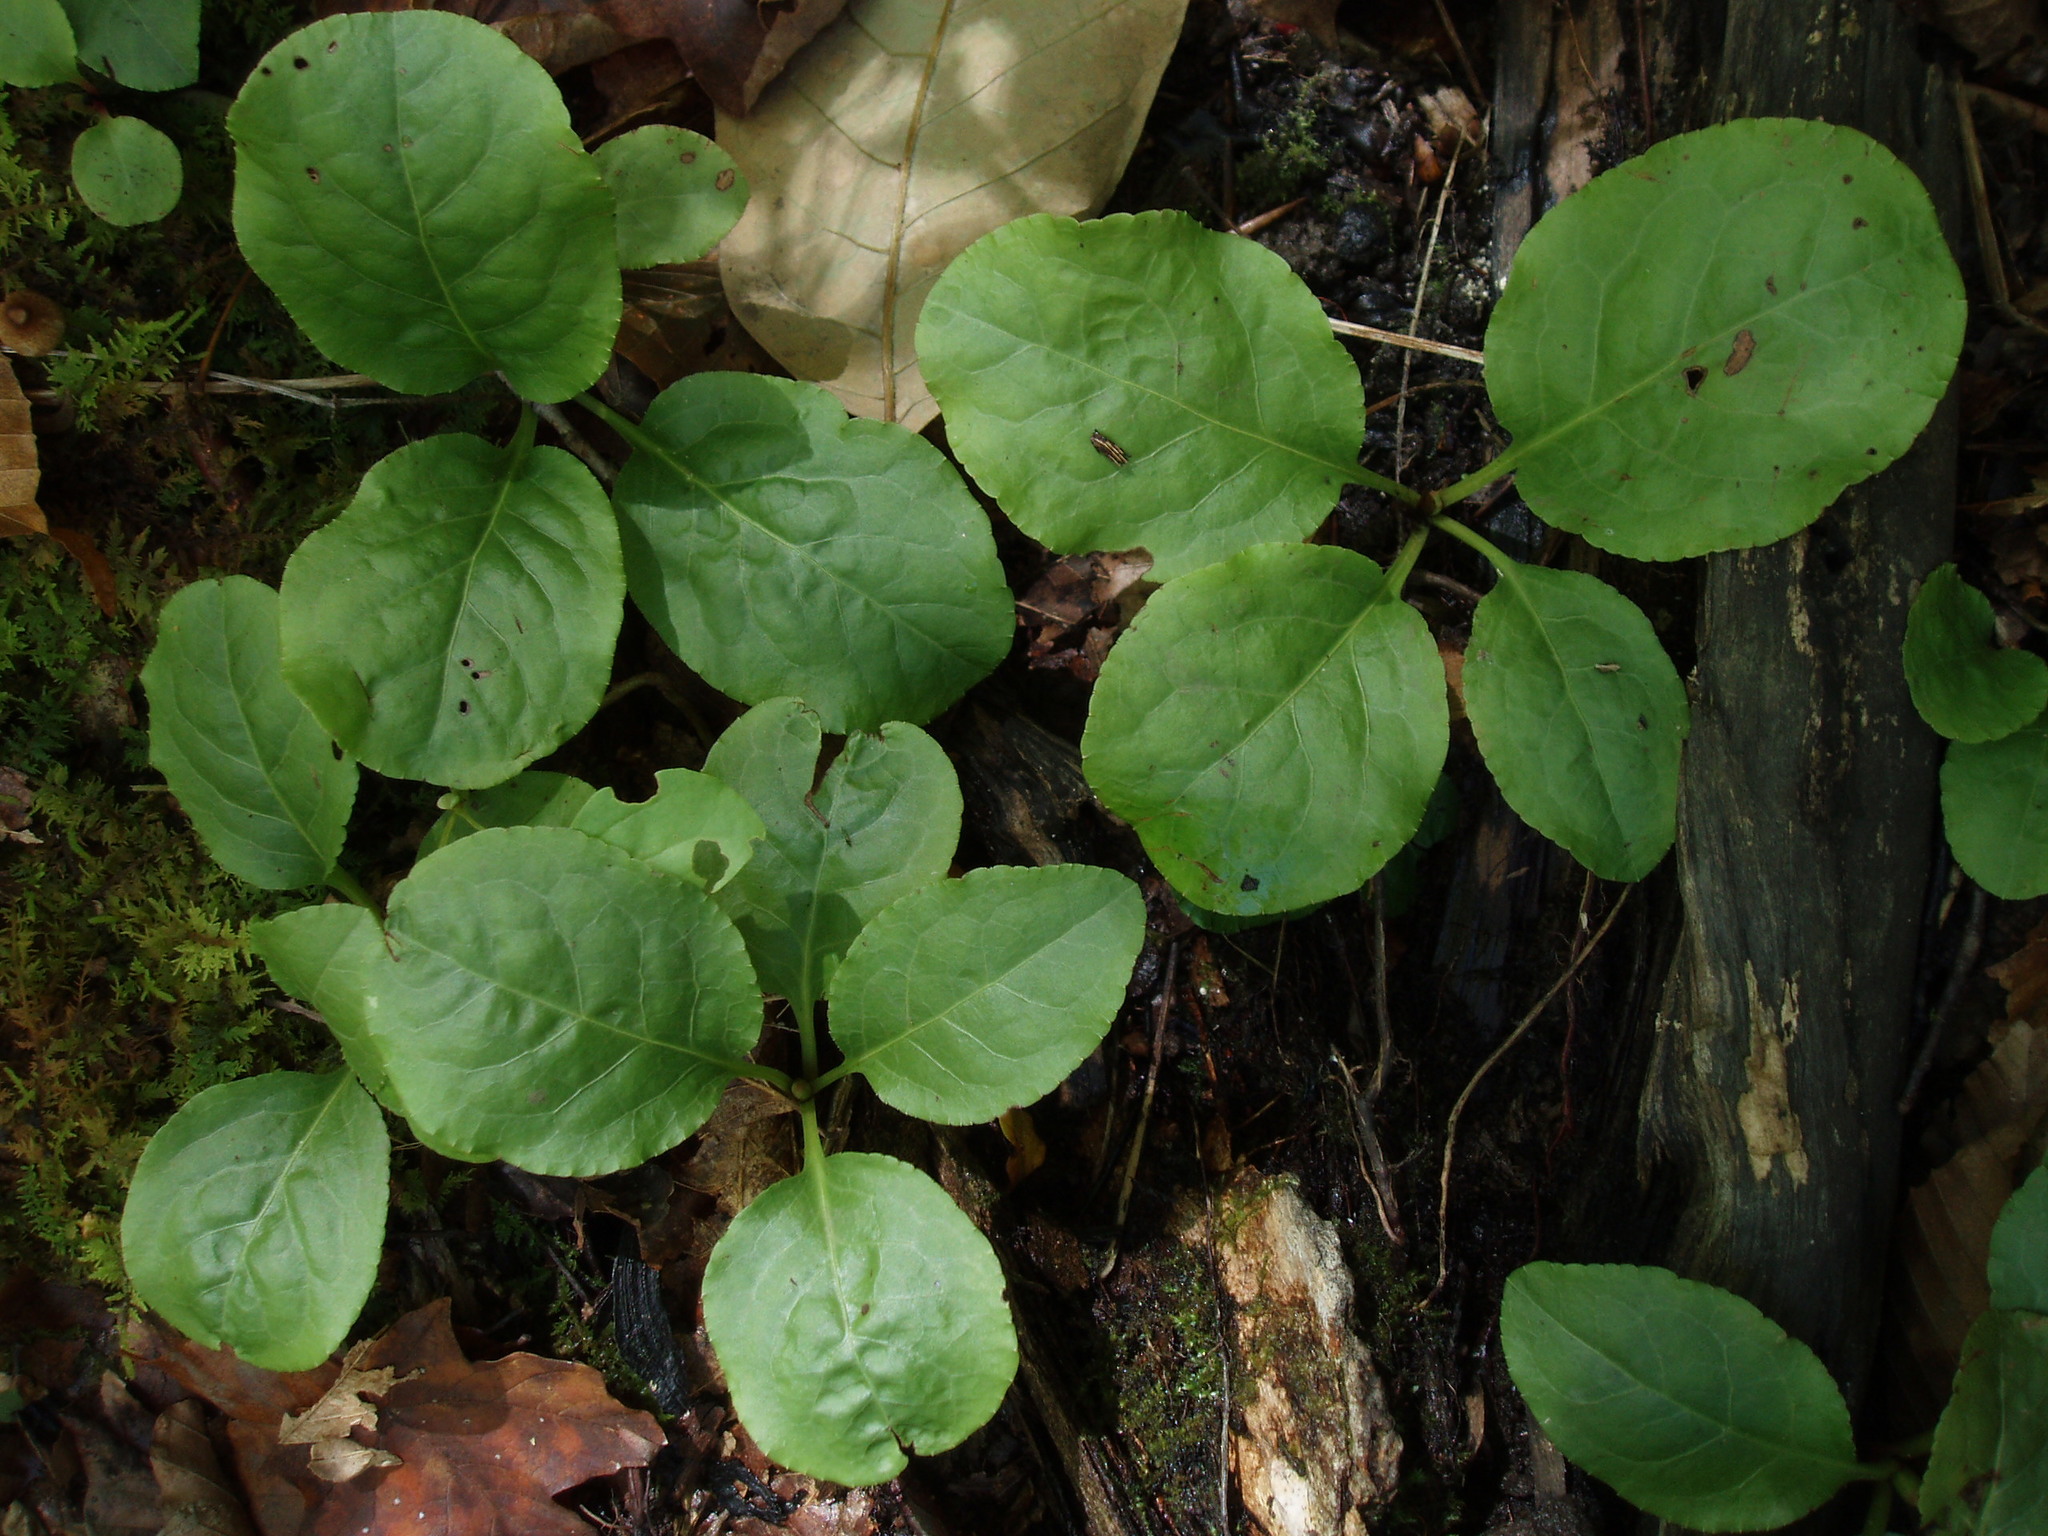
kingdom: Plantae
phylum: Tracheophyta
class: Magnoliopsida
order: Ericales
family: Ericaceae
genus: Pyrola
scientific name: Pyrola elliptica
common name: Shinleaf
